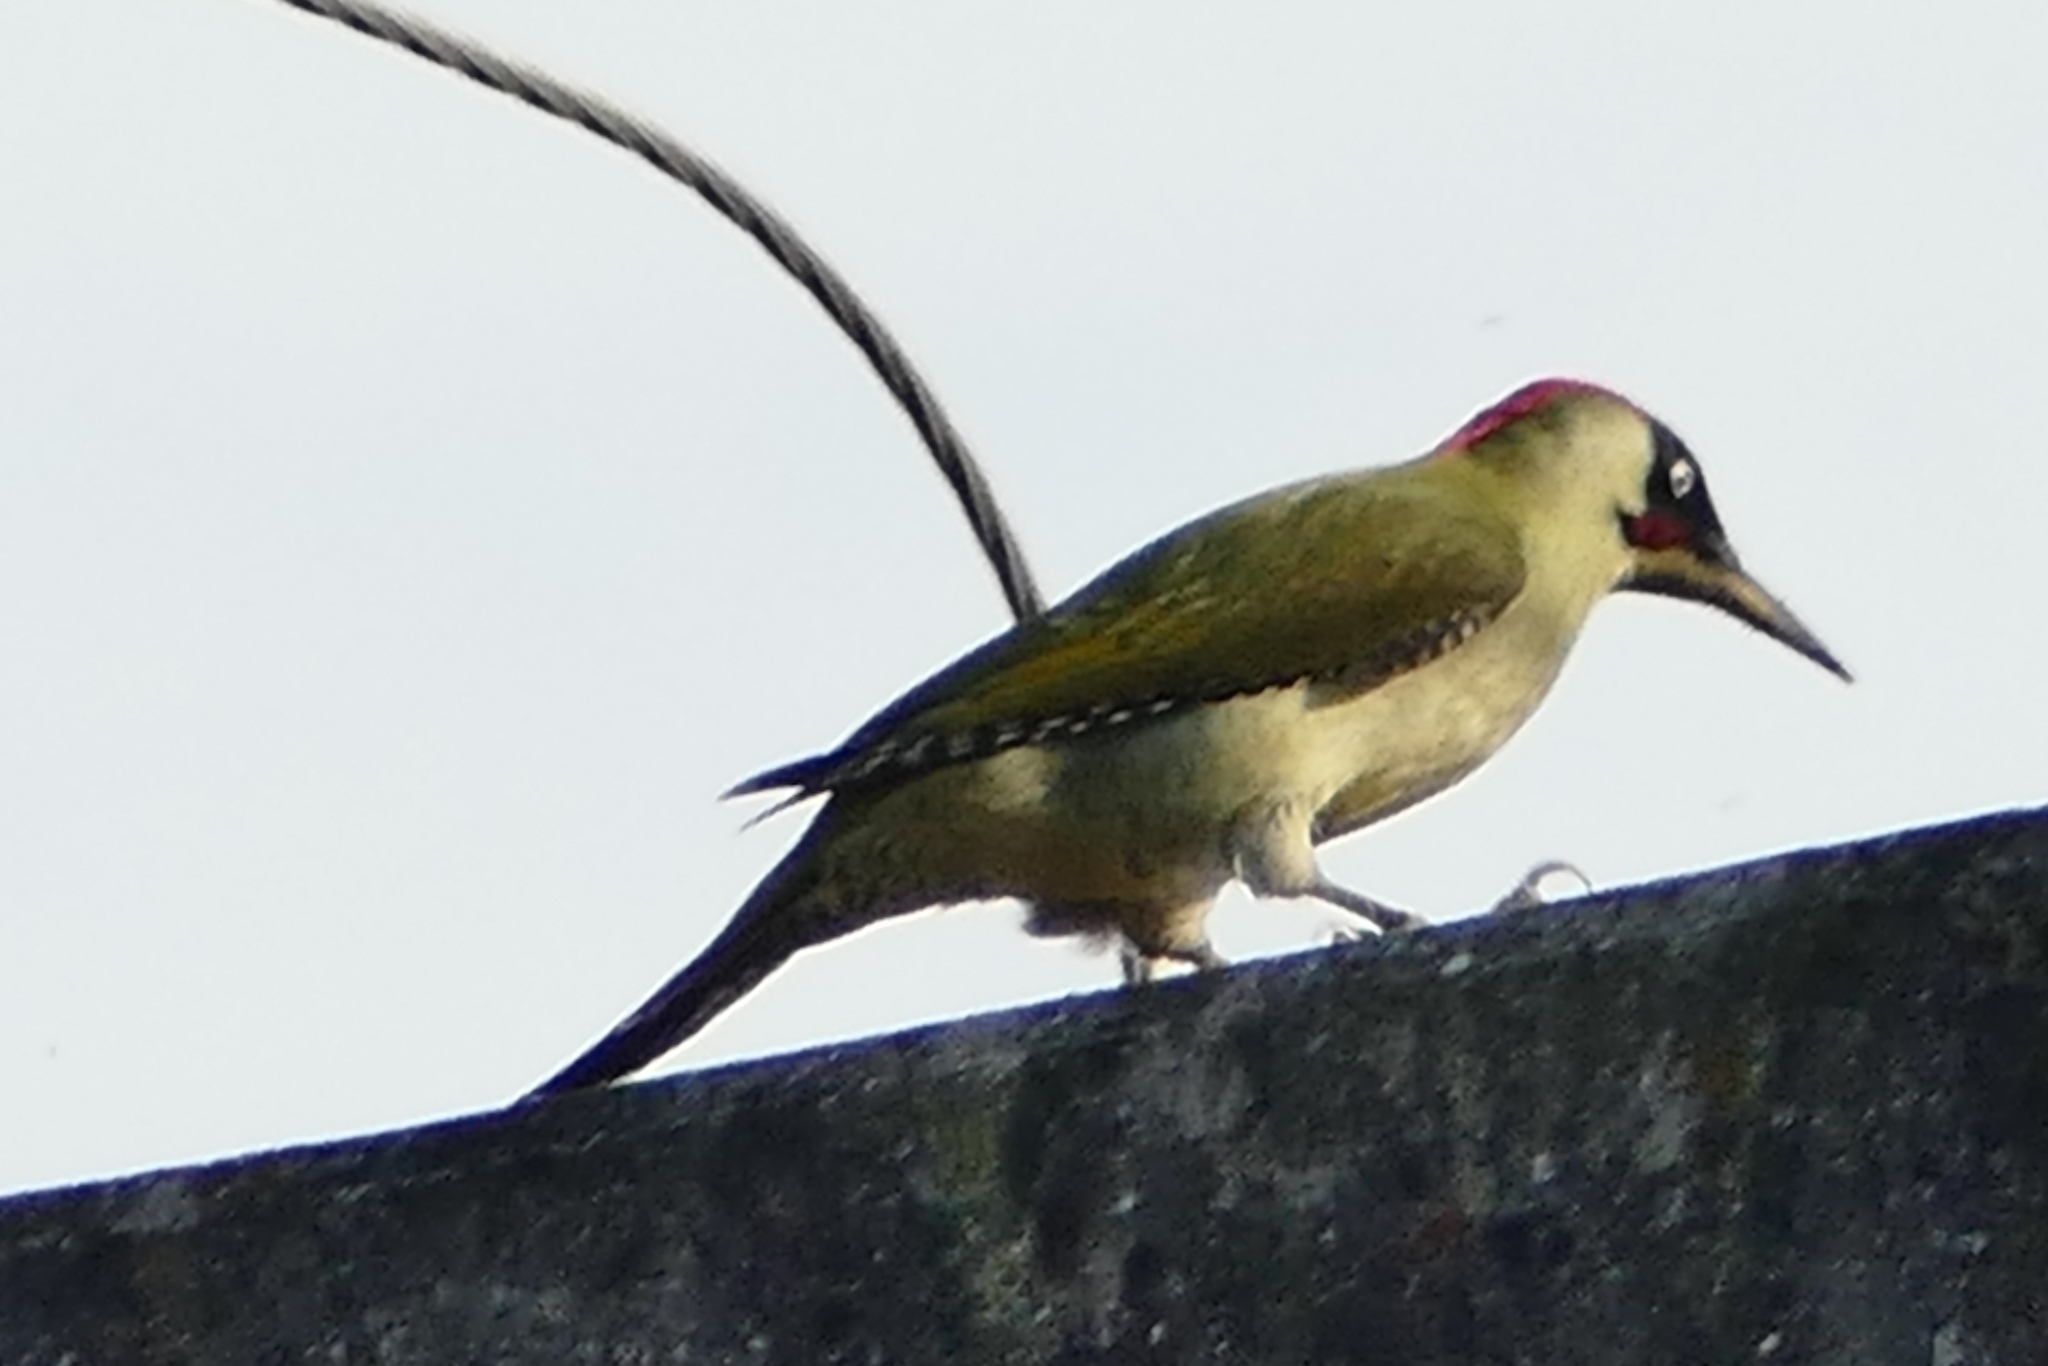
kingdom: Animalia
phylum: Chordata
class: Aves
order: Piciformes
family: Picidae
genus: Picus
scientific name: Picus viridis
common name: European green woodpecker
